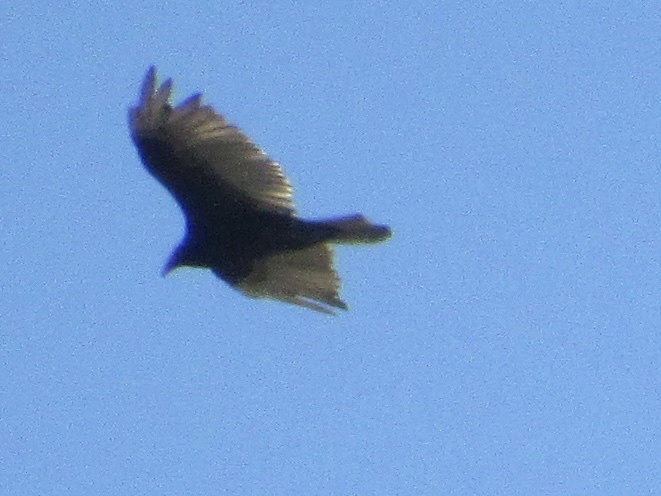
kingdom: Animalia
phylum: Chordata
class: Aves
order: Accipitriformes
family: Cathartidae
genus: Cathartes
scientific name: Cathartes aura
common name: Turkey vulture
